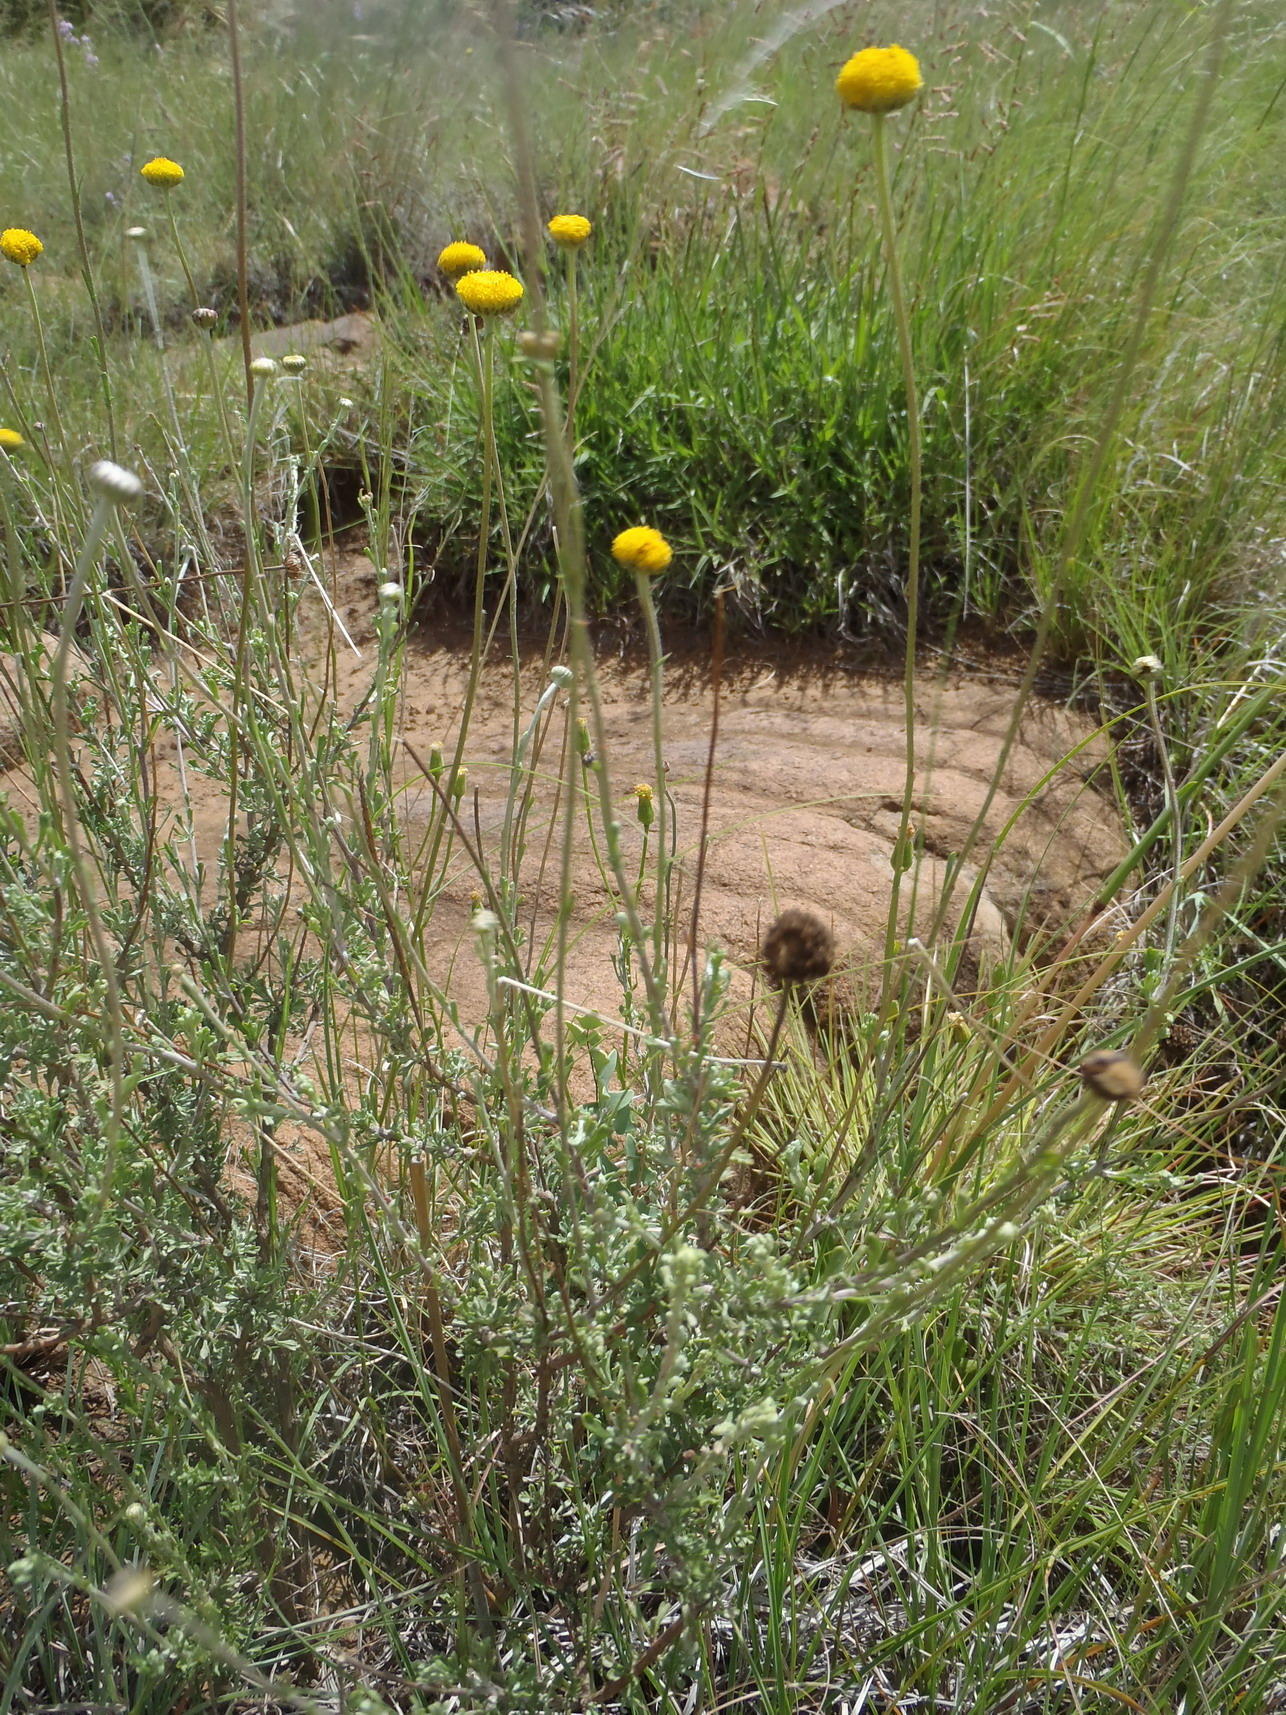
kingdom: Plantae
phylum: Tracheophyta
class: Magnoliopsida
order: Asterales
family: Asteraceae
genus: Pentzia
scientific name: Pentzia quinquefida
